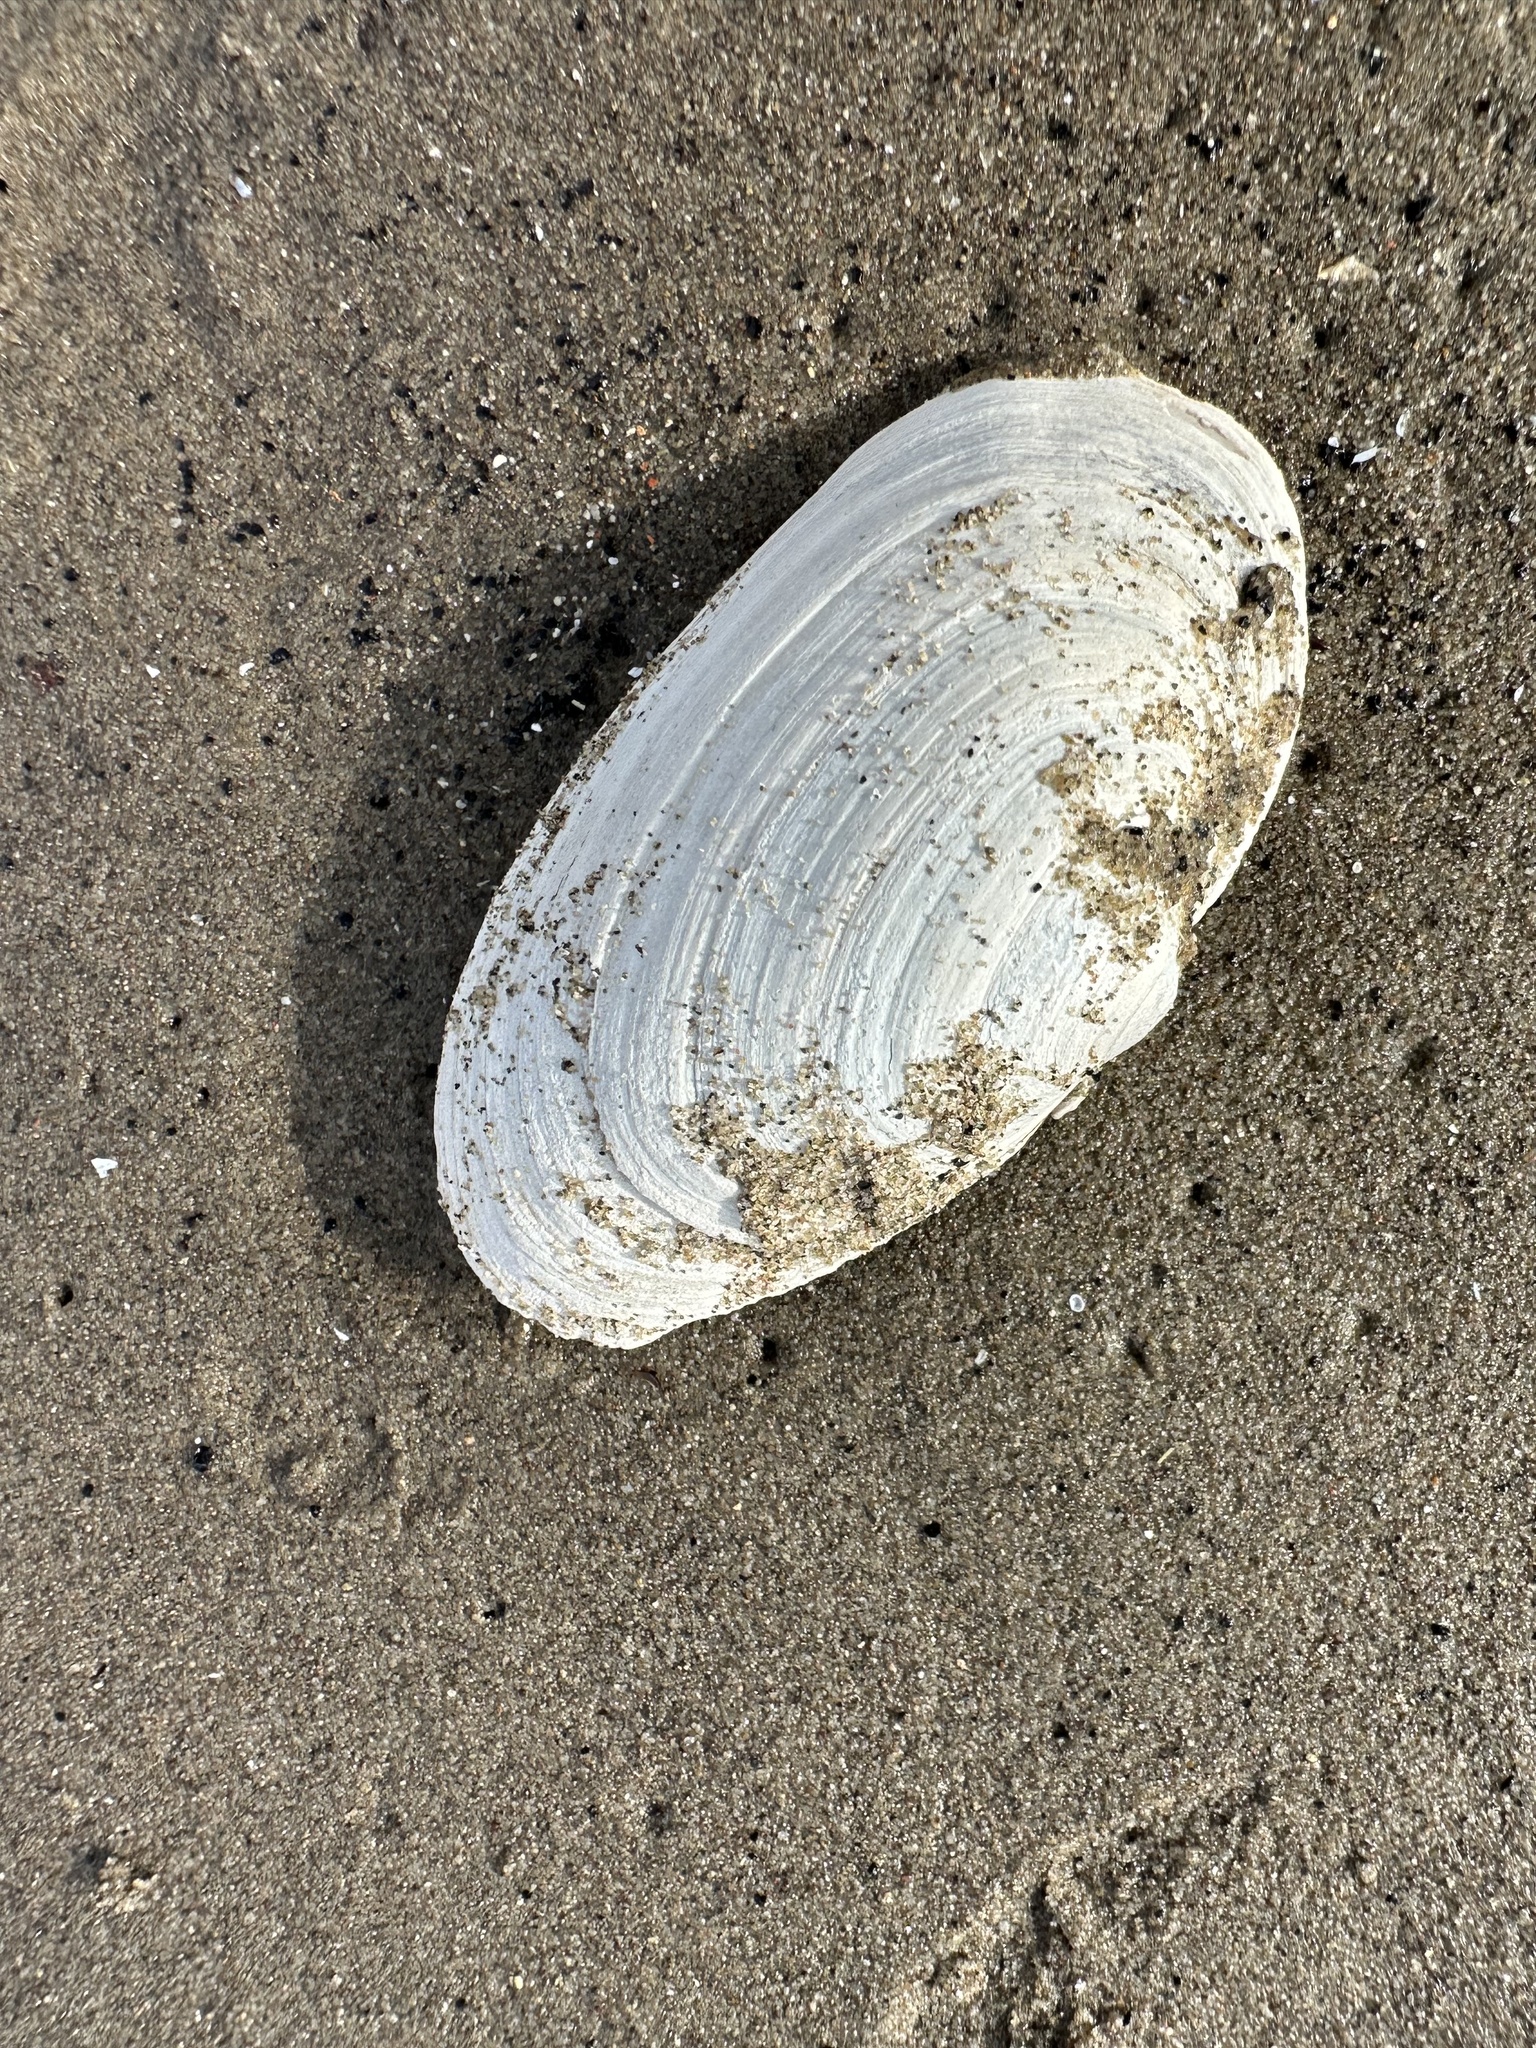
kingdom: Animalia
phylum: Mollusca
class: Bivalvia
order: Myida
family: Myidae
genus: Mya
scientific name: Mya arenaria
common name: Soft-shelled clam
